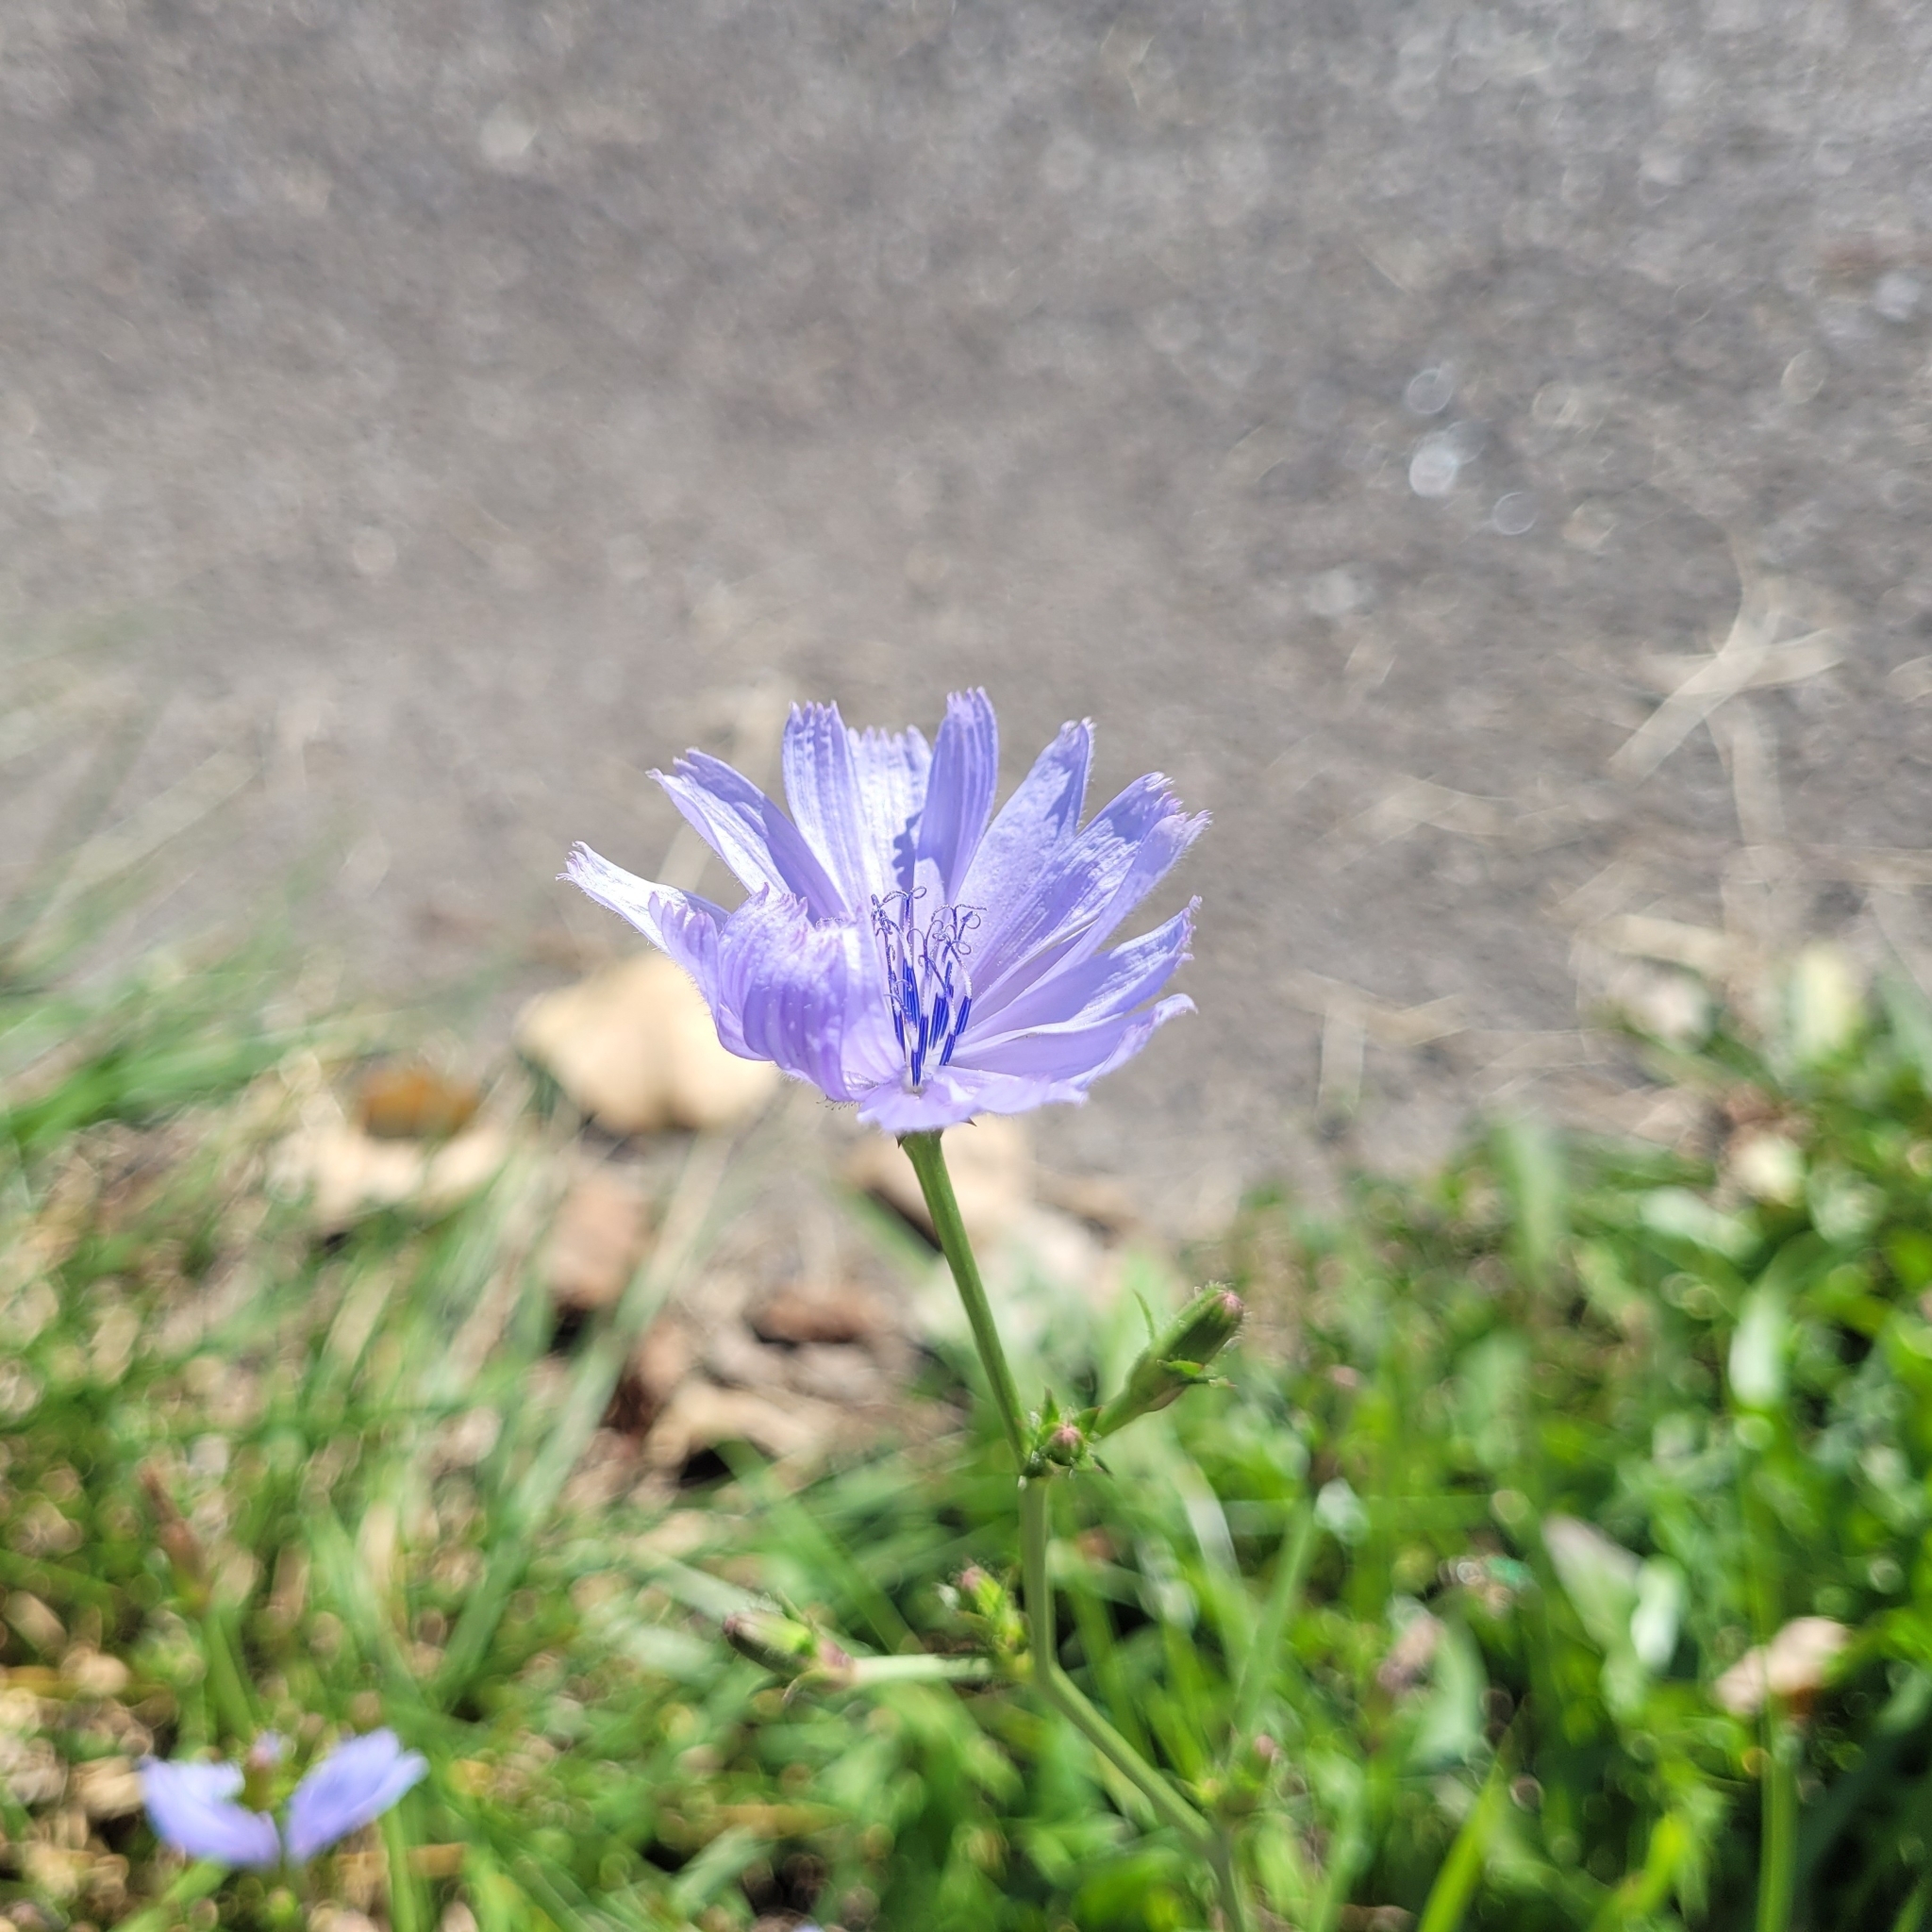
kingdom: Plantae
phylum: Tracheophyta
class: Magnoliopsida
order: Asterales
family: Asteraceae
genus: Cichorium
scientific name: Cichorium intybus
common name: Chicory
